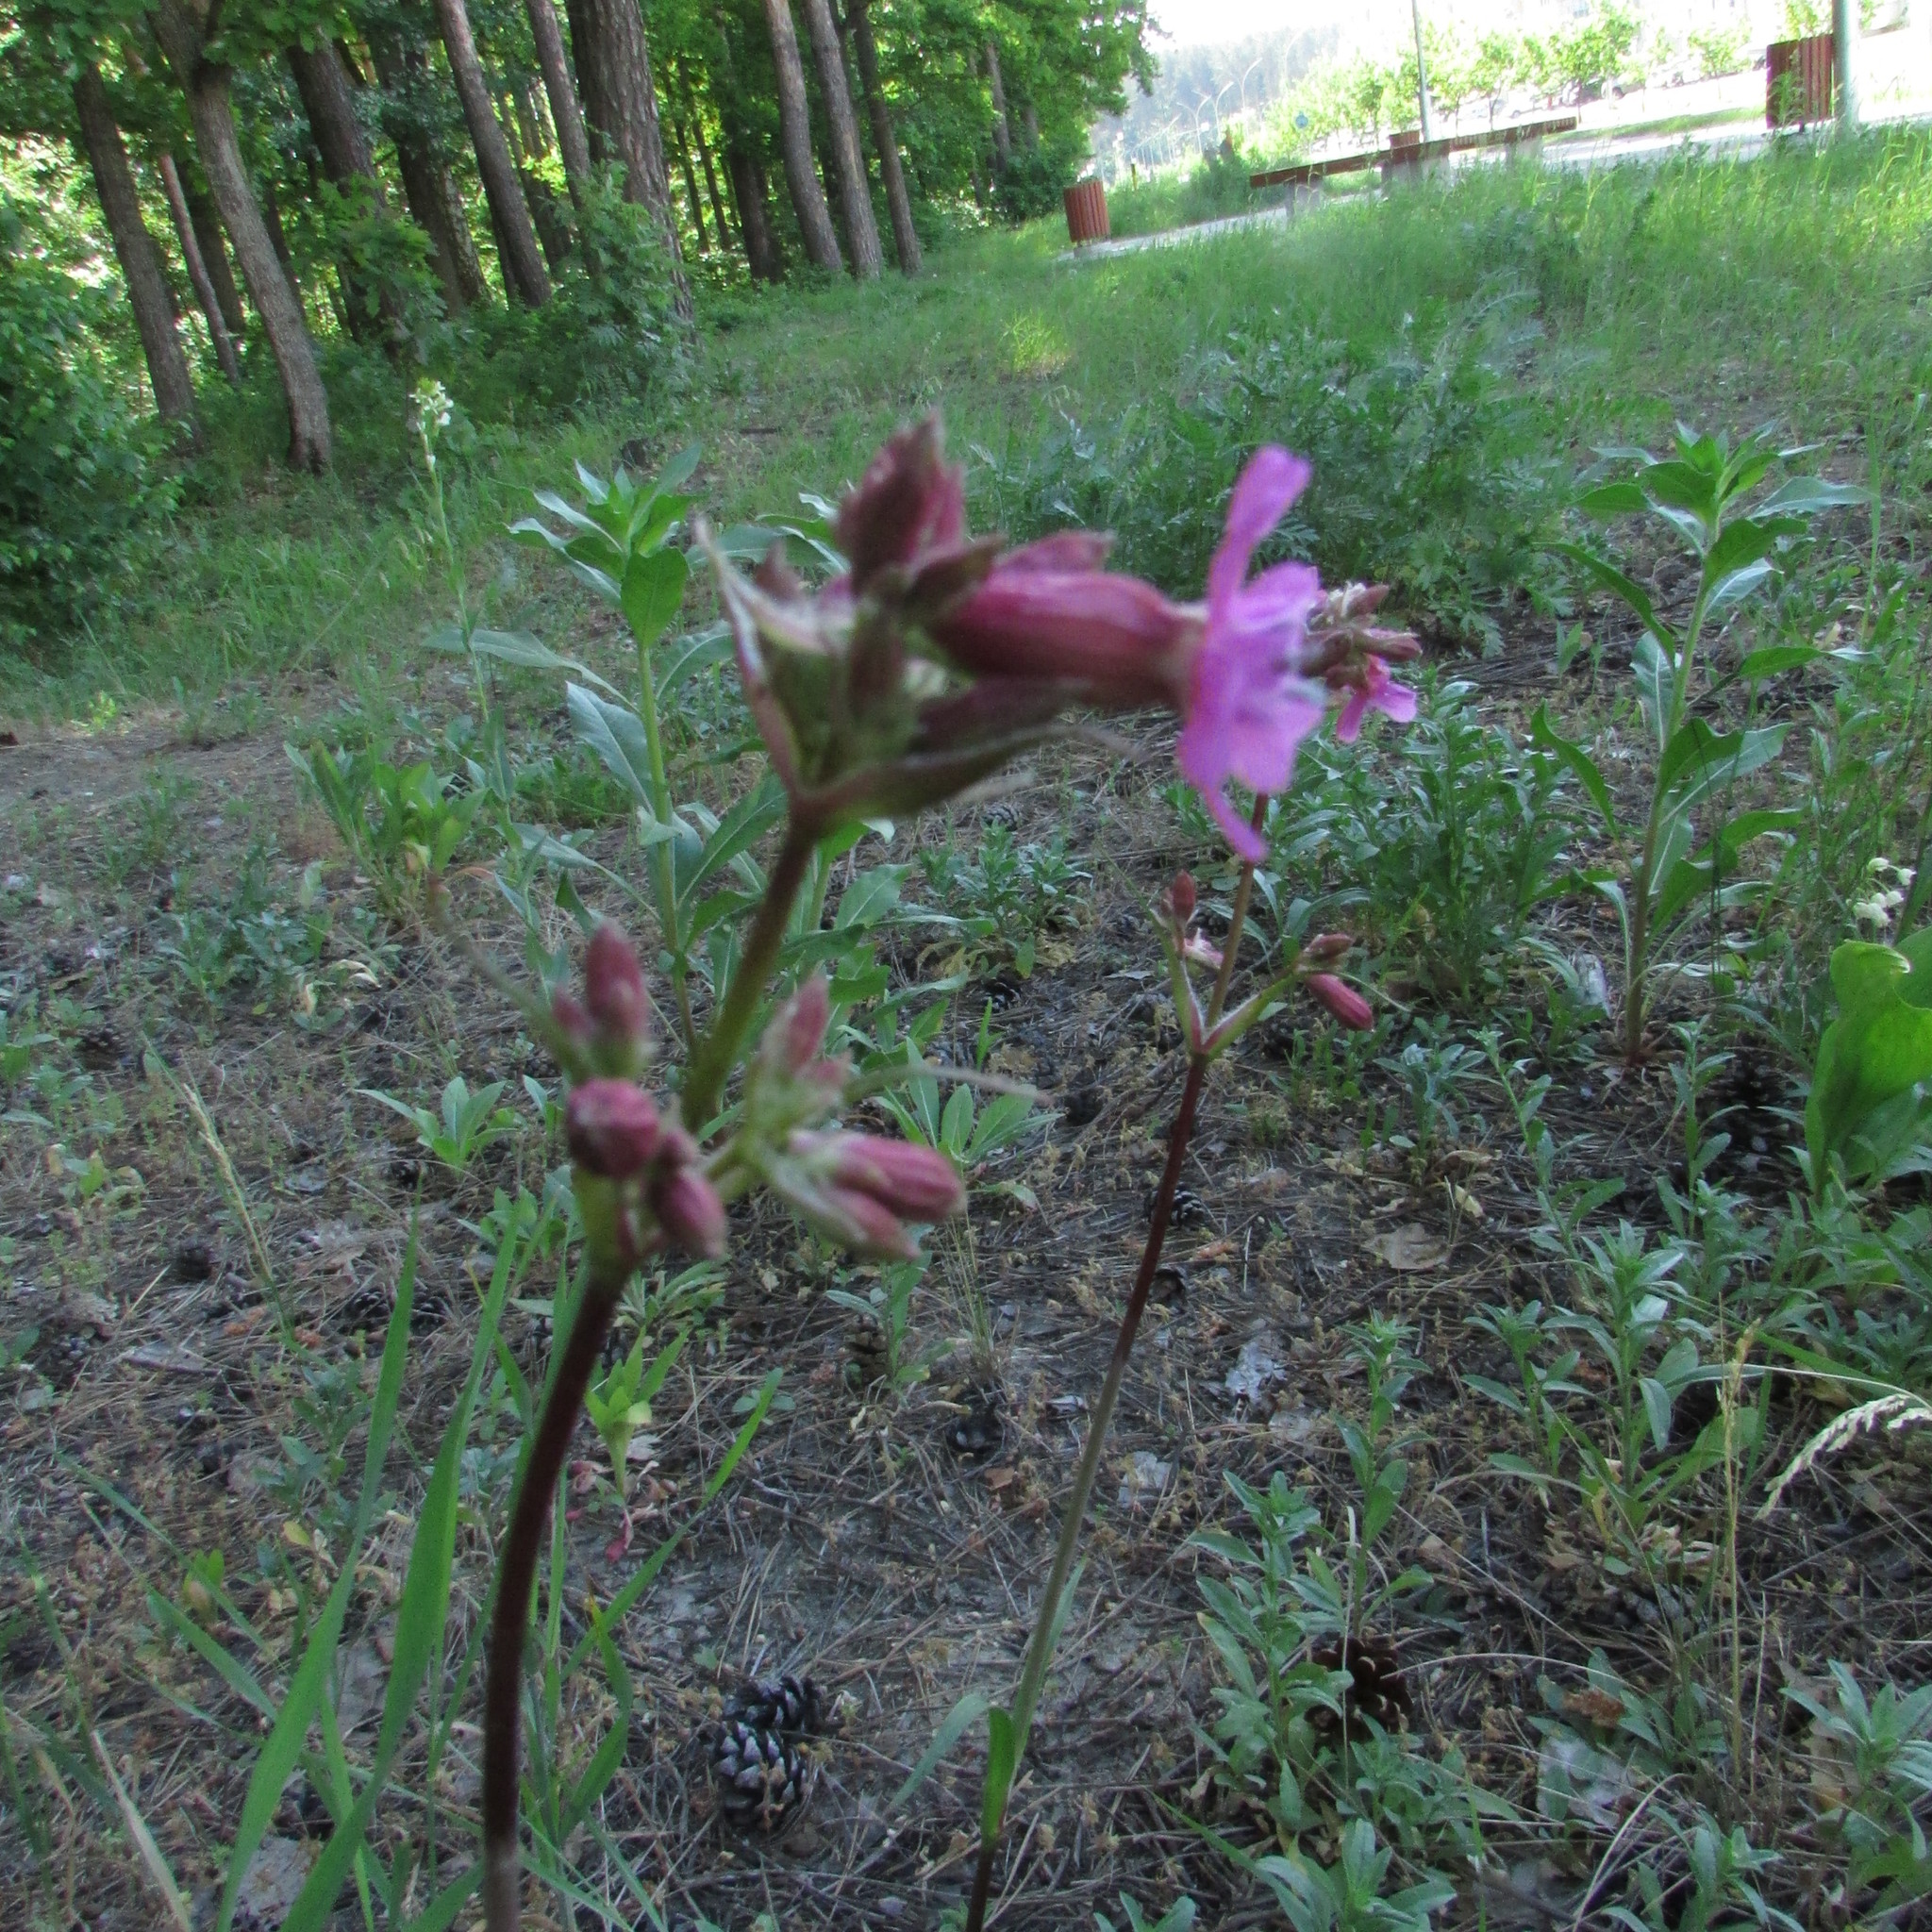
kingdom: Plantae
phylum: Tracheophyta
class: Magnoliopsida
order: Caryophyllales
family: Caryophyllaceae
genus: Viscaria
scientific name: Viscaria vulgaris
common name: Clammy campion
